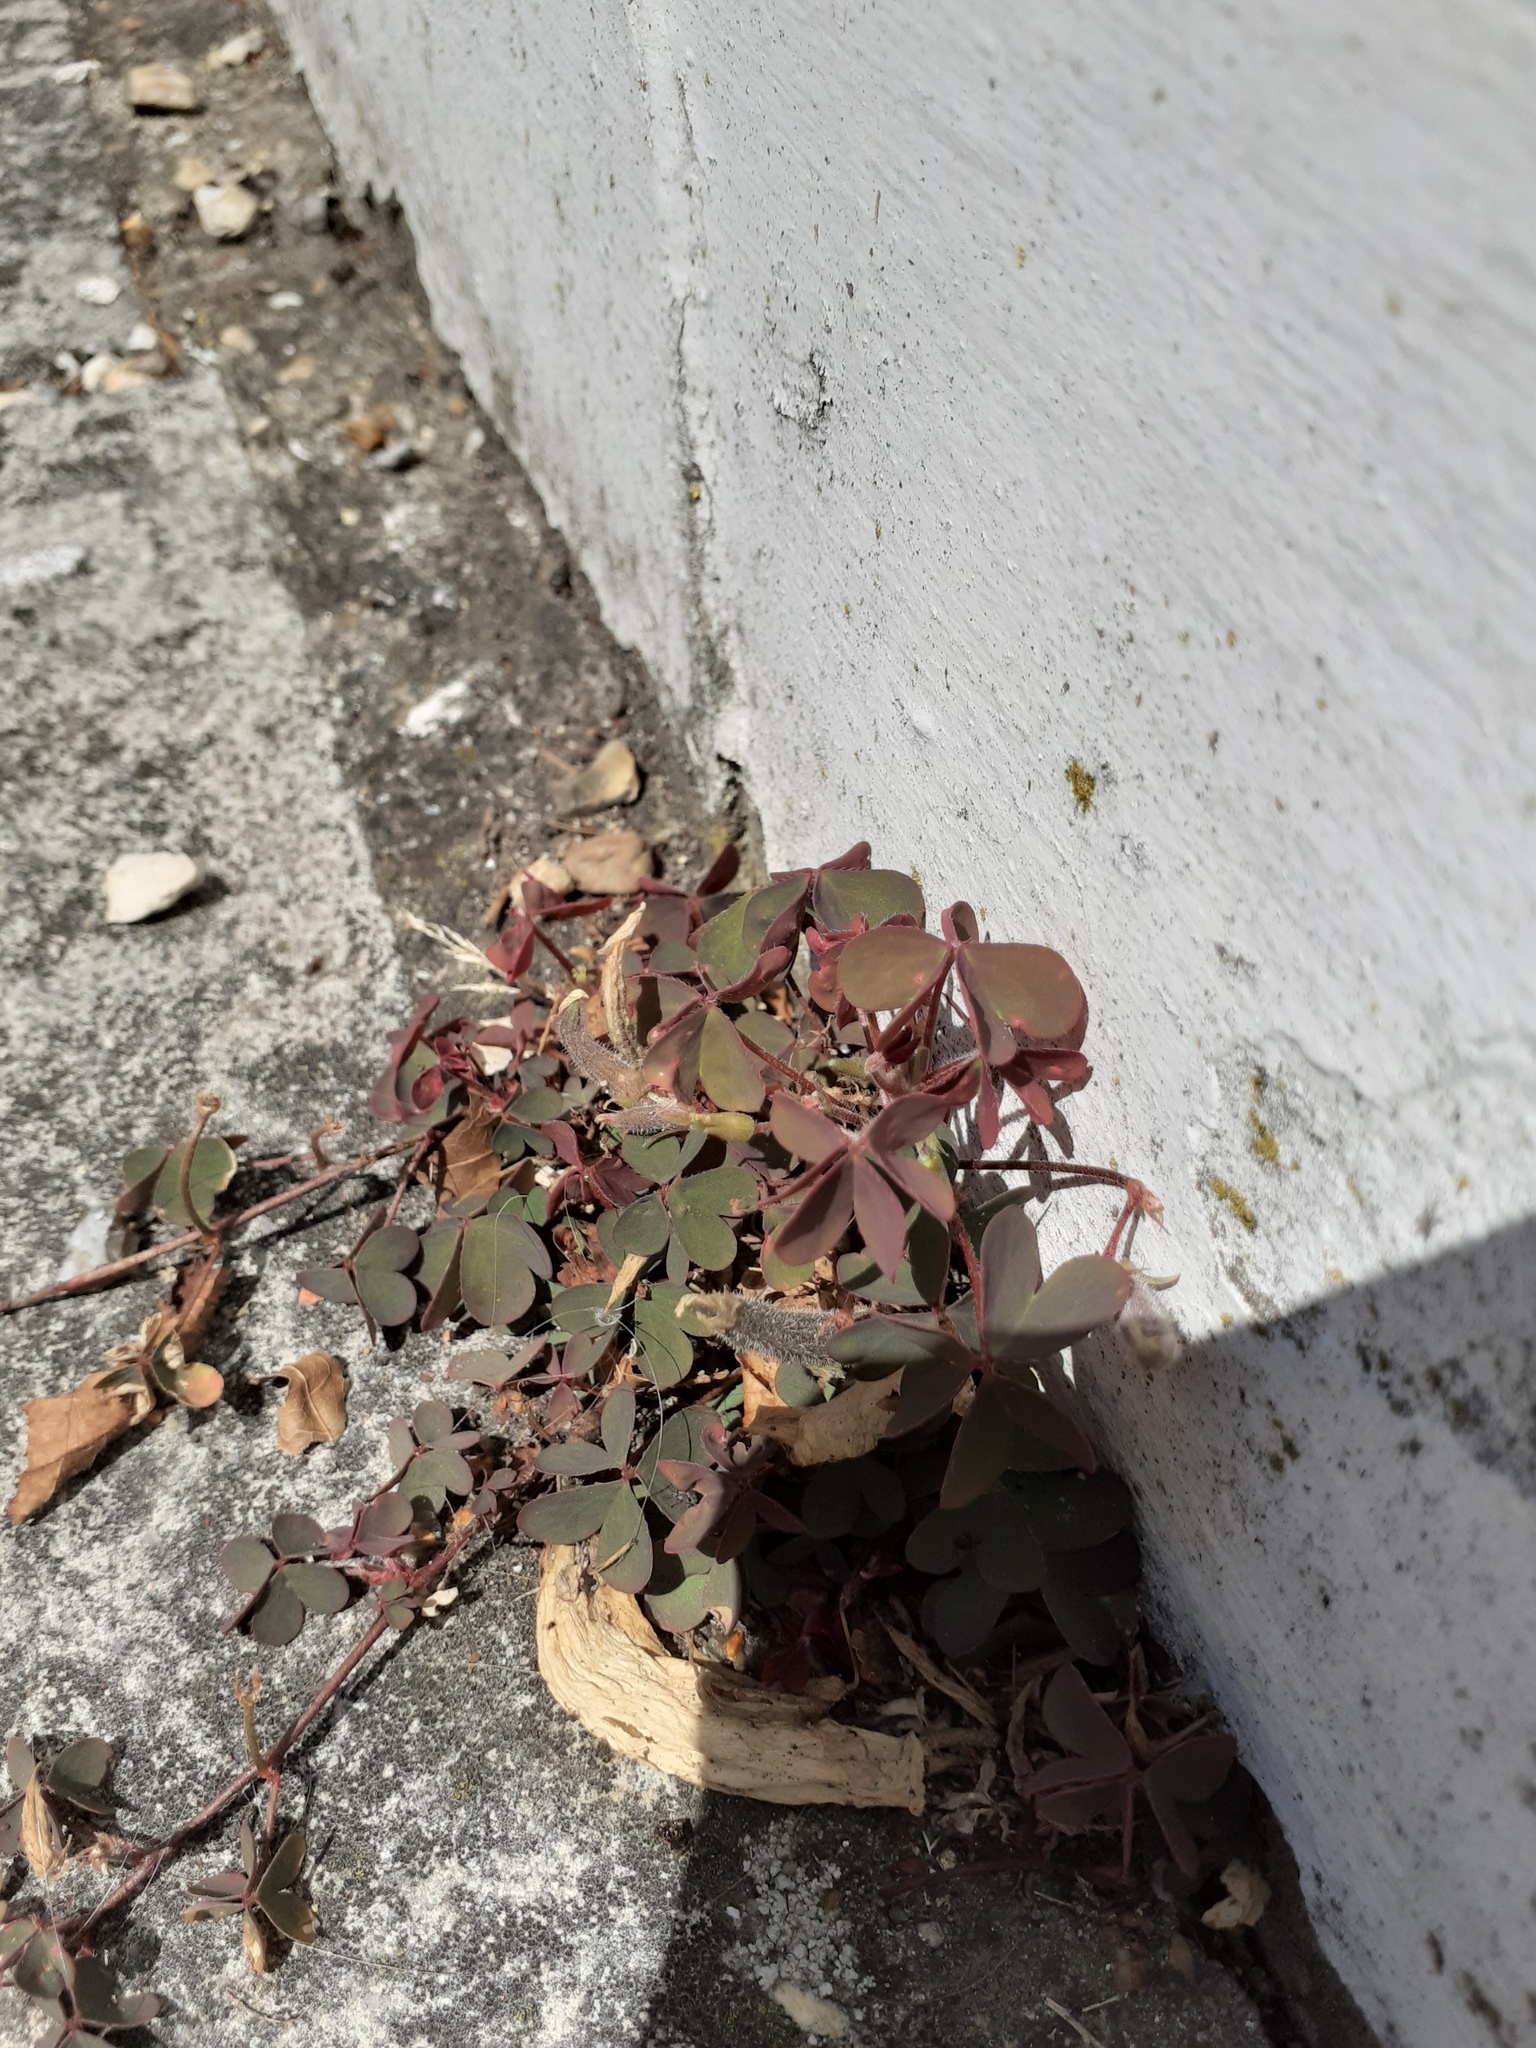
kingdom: Plantae
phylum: Tracheophyta
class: Magnoliopsida
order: Oxalidales
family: Oxalidaceae
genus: Oxalis
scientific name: Oxalis corniculata
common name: Procumbent yellow-sorrel
